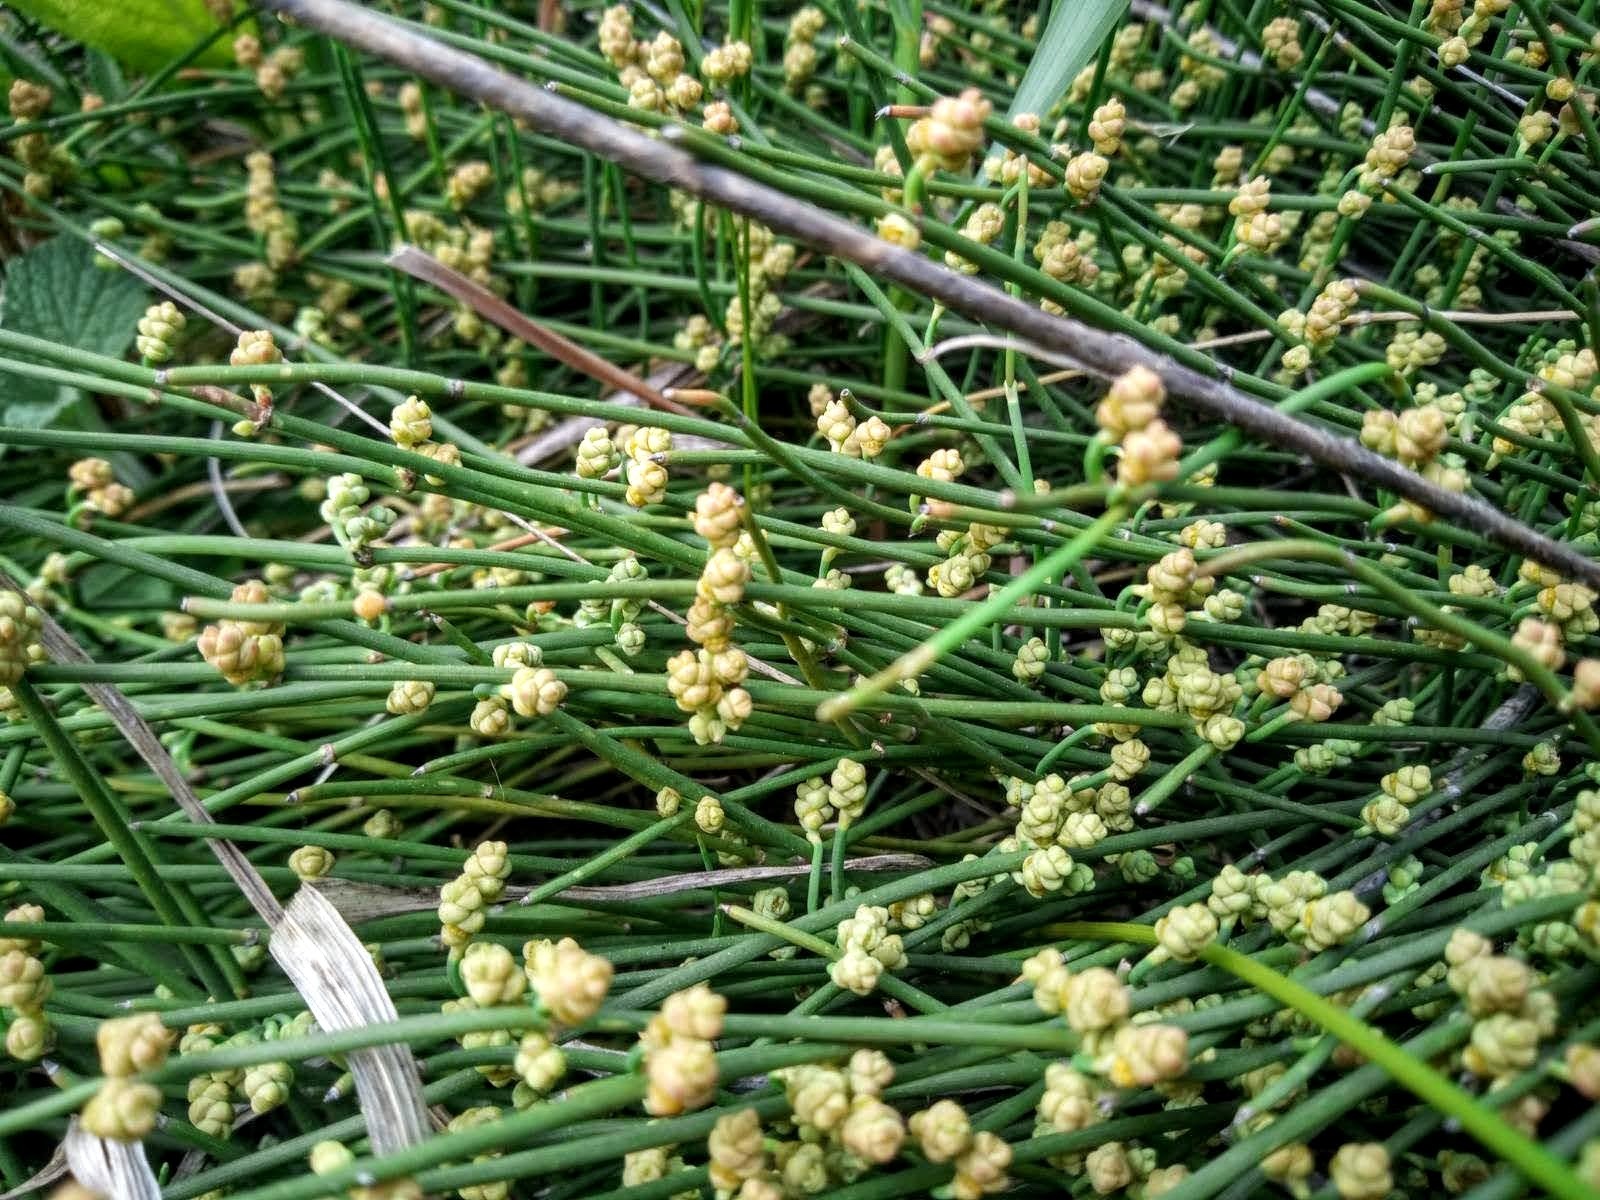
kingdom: Plantae
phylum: Tracheophyta
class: Gnetopsida
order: Ephedrales
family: Ephedraceae
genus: Ephedra
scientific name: Ephedra distachya
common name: Sea grape
